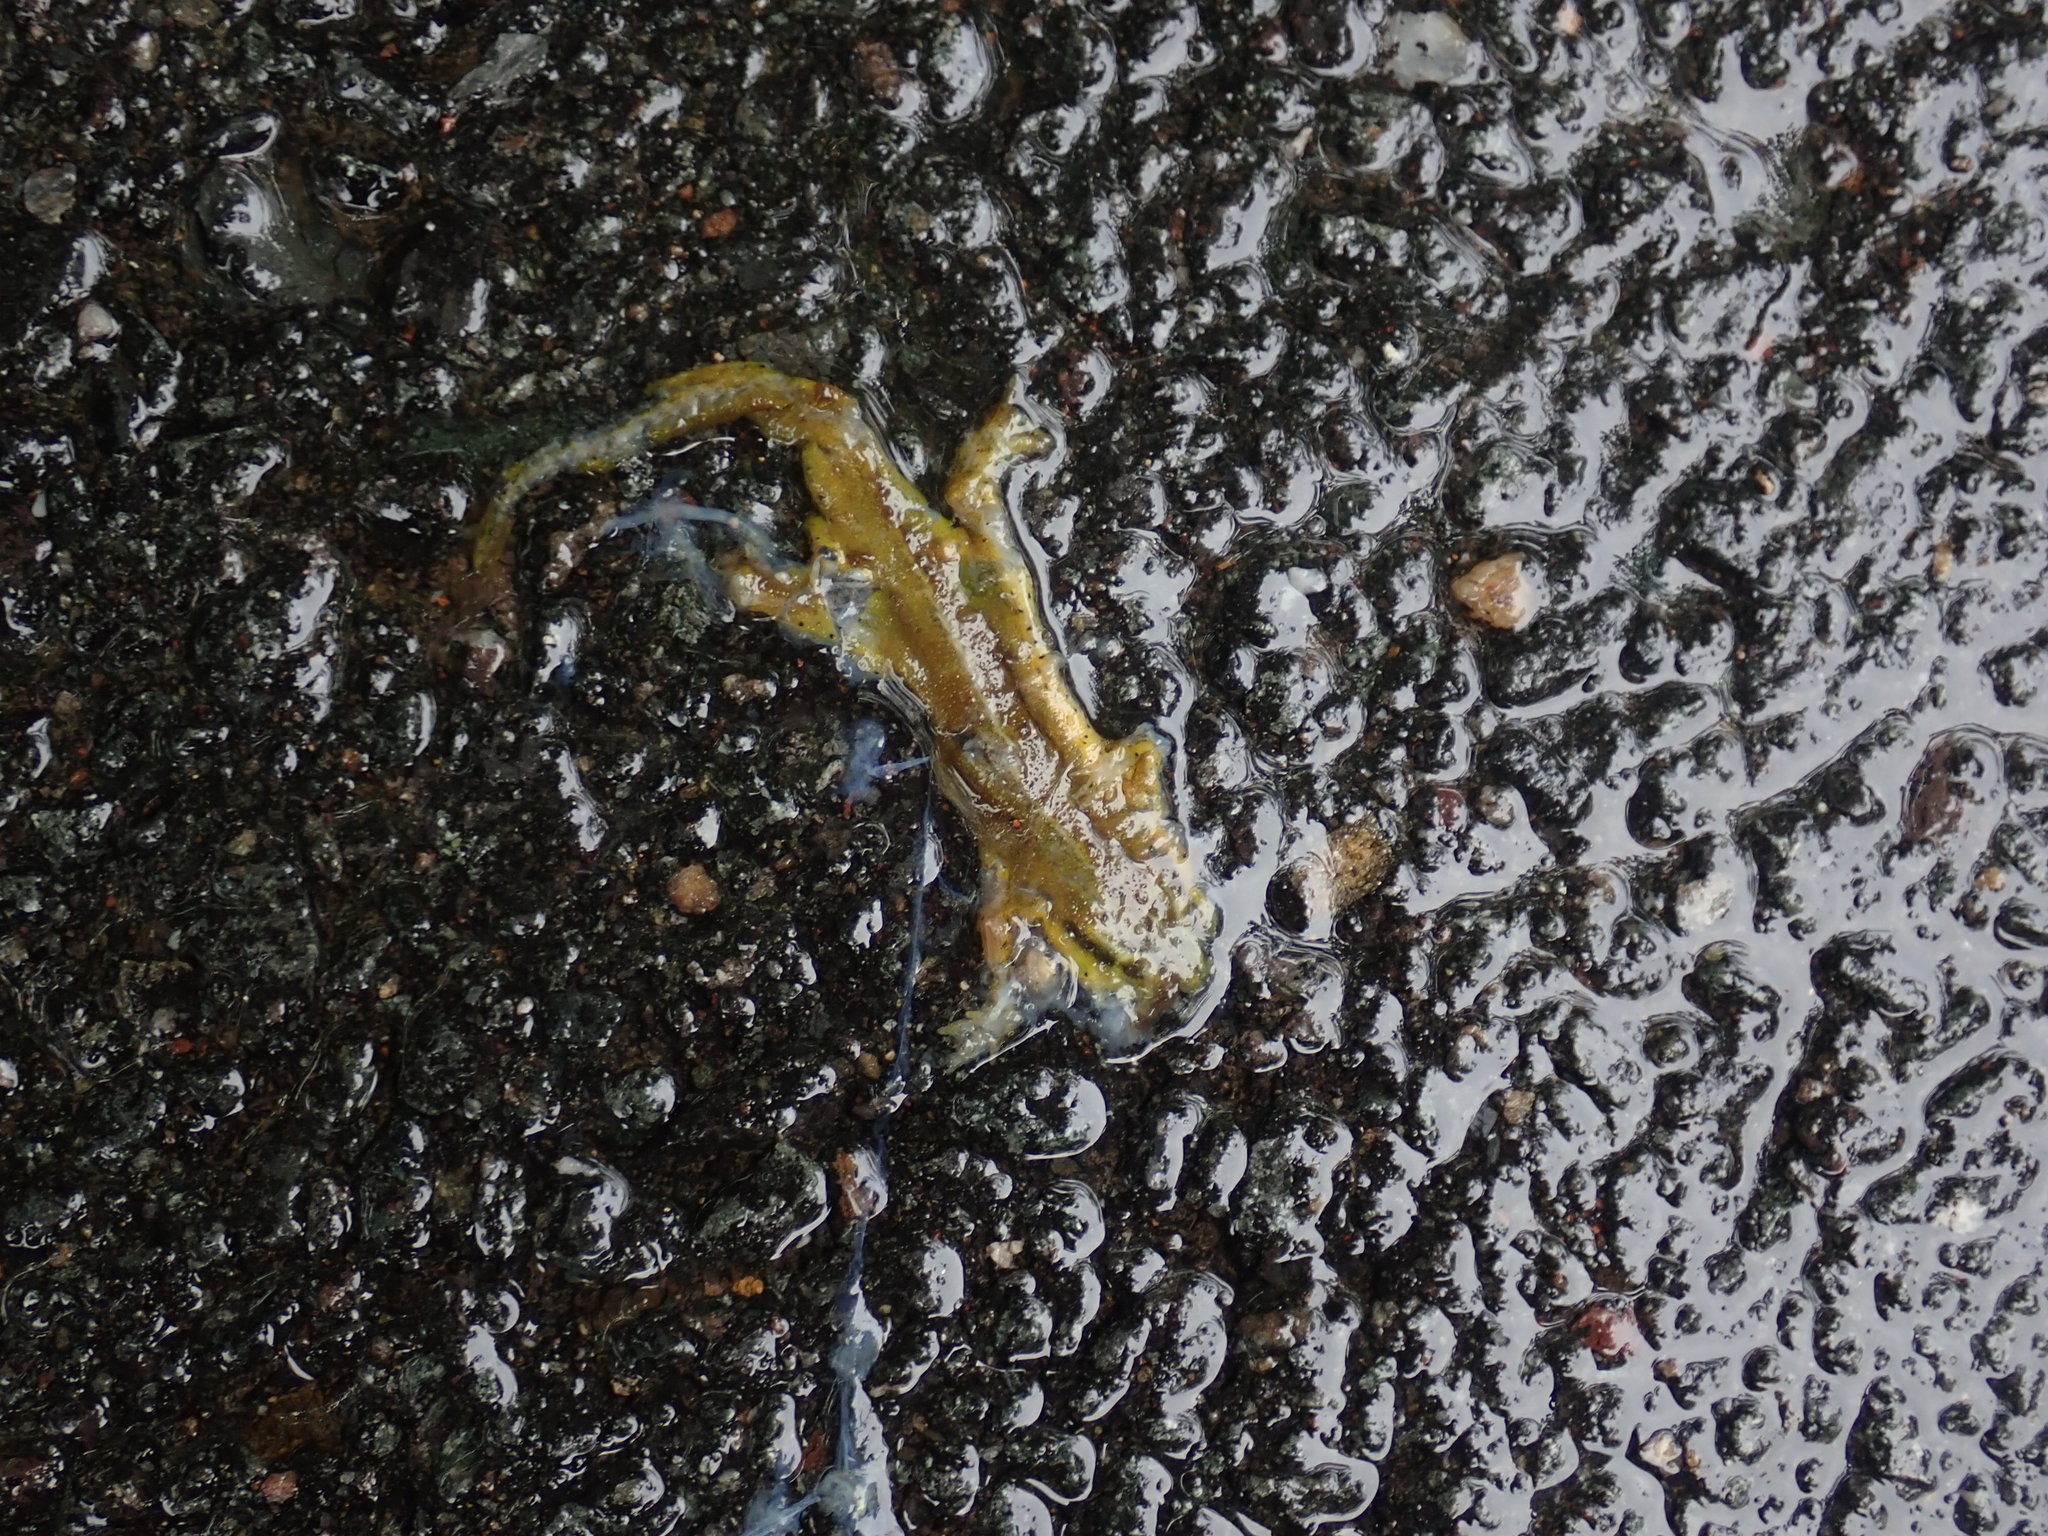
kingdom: Animalia
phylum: Chordata
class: Amphibia
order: Caudata
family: Salamandridae
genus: Notophthalmus
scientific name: Notophthalmus viridescens
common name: Eastern newt
